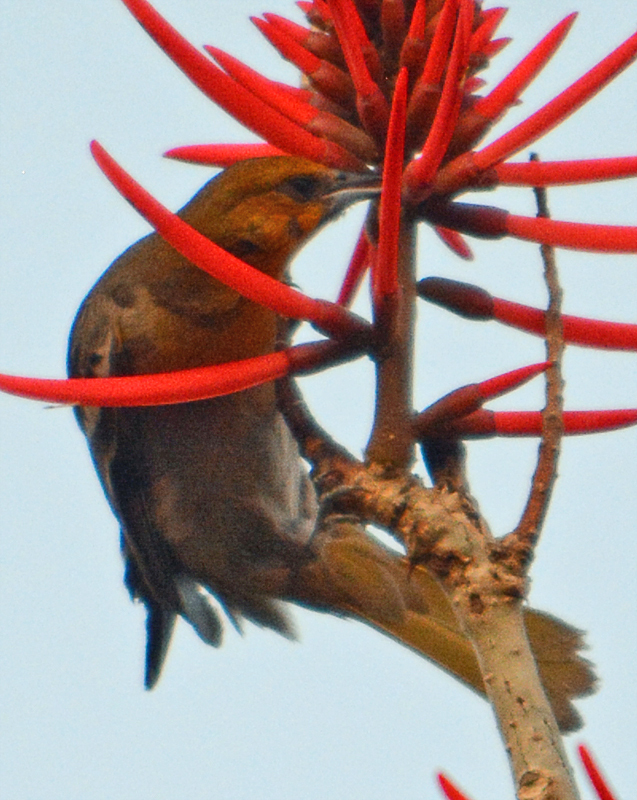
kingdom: Animalia
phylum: Chordata
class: Aves
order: Passeriformes
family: Icteridae
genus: Icterus
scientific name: Icterus abeillei
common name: Black-backed oriole
